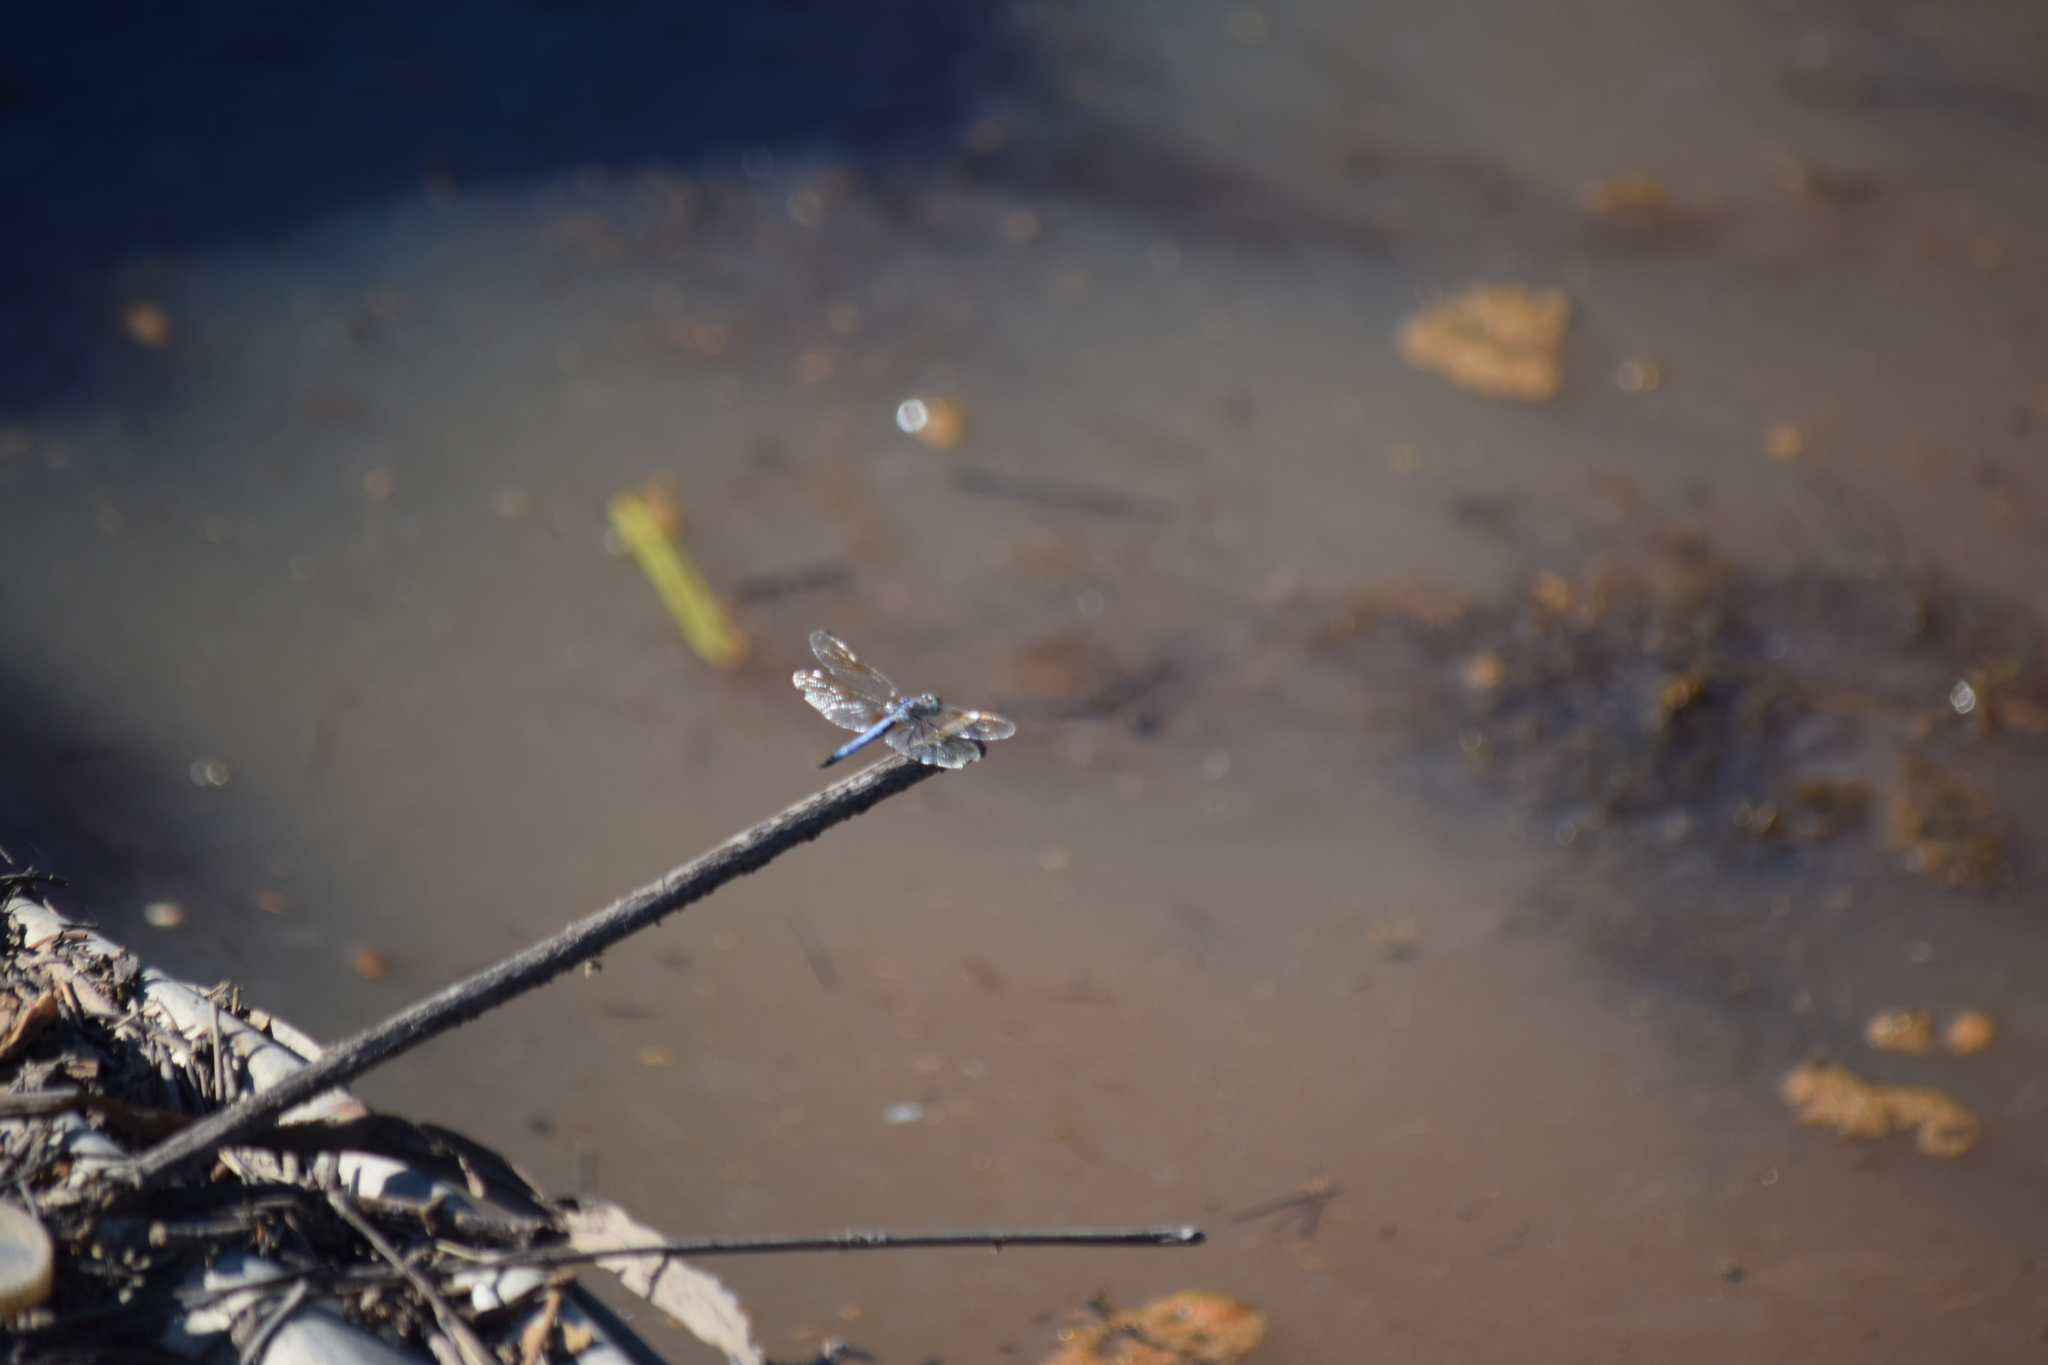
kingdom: Animalia
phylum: Arthropoda
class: Insecta
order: Odonata
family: Libellulidae
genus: Pachydiplax
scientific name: Pachydiplax longipennis
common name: Blue dasher
